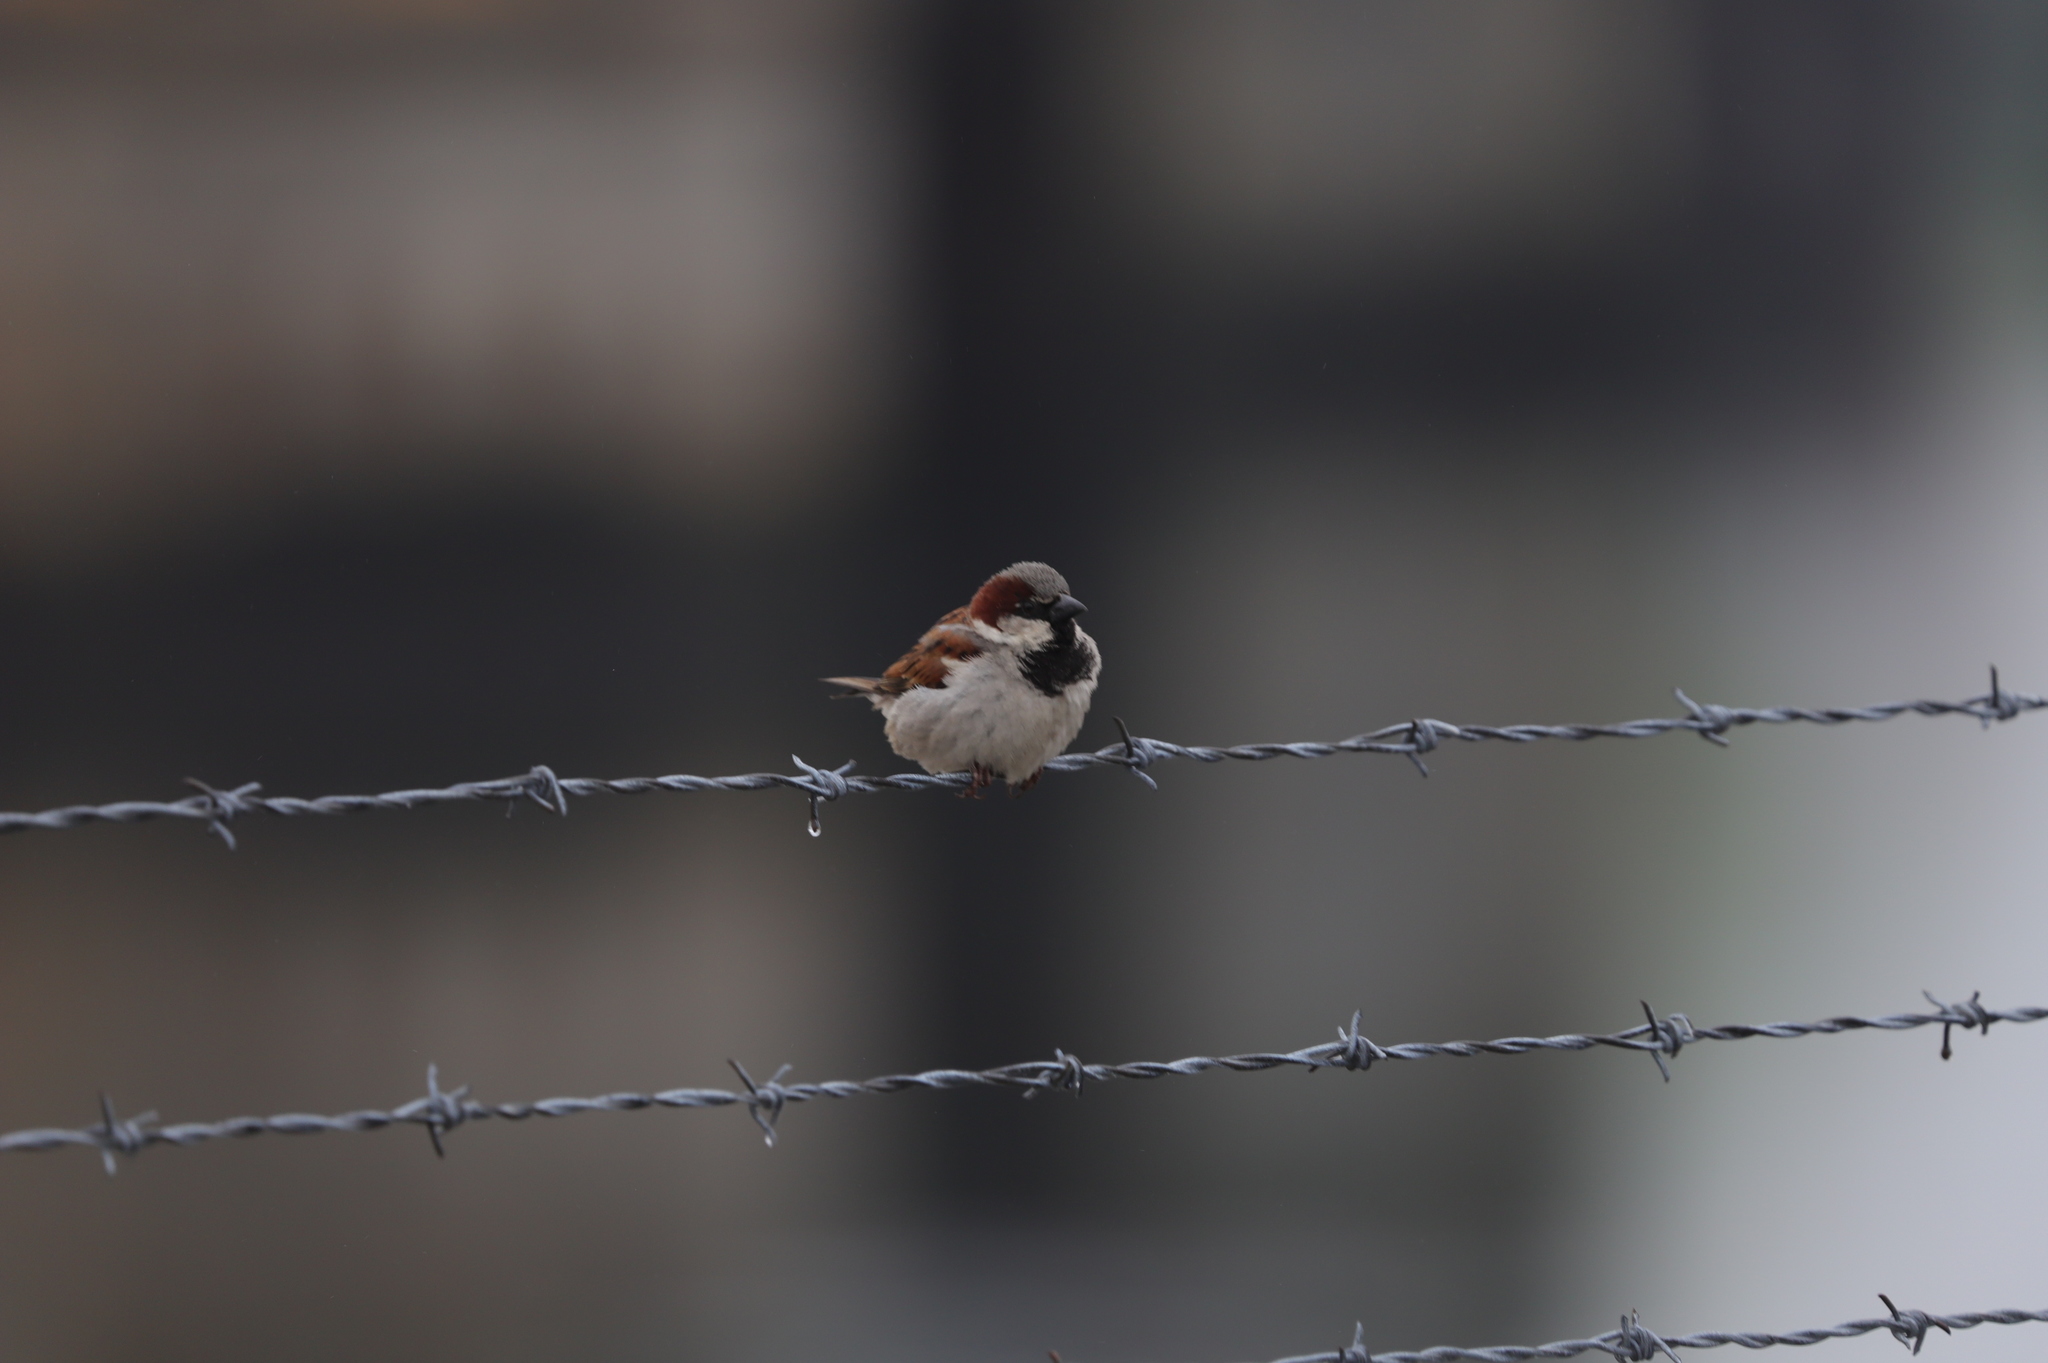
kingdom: Animalia
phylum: Chordata
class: Aves
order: Passeriformes
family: Passeridae
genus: Passer
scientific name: Passer domesticus
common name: House sparrow
